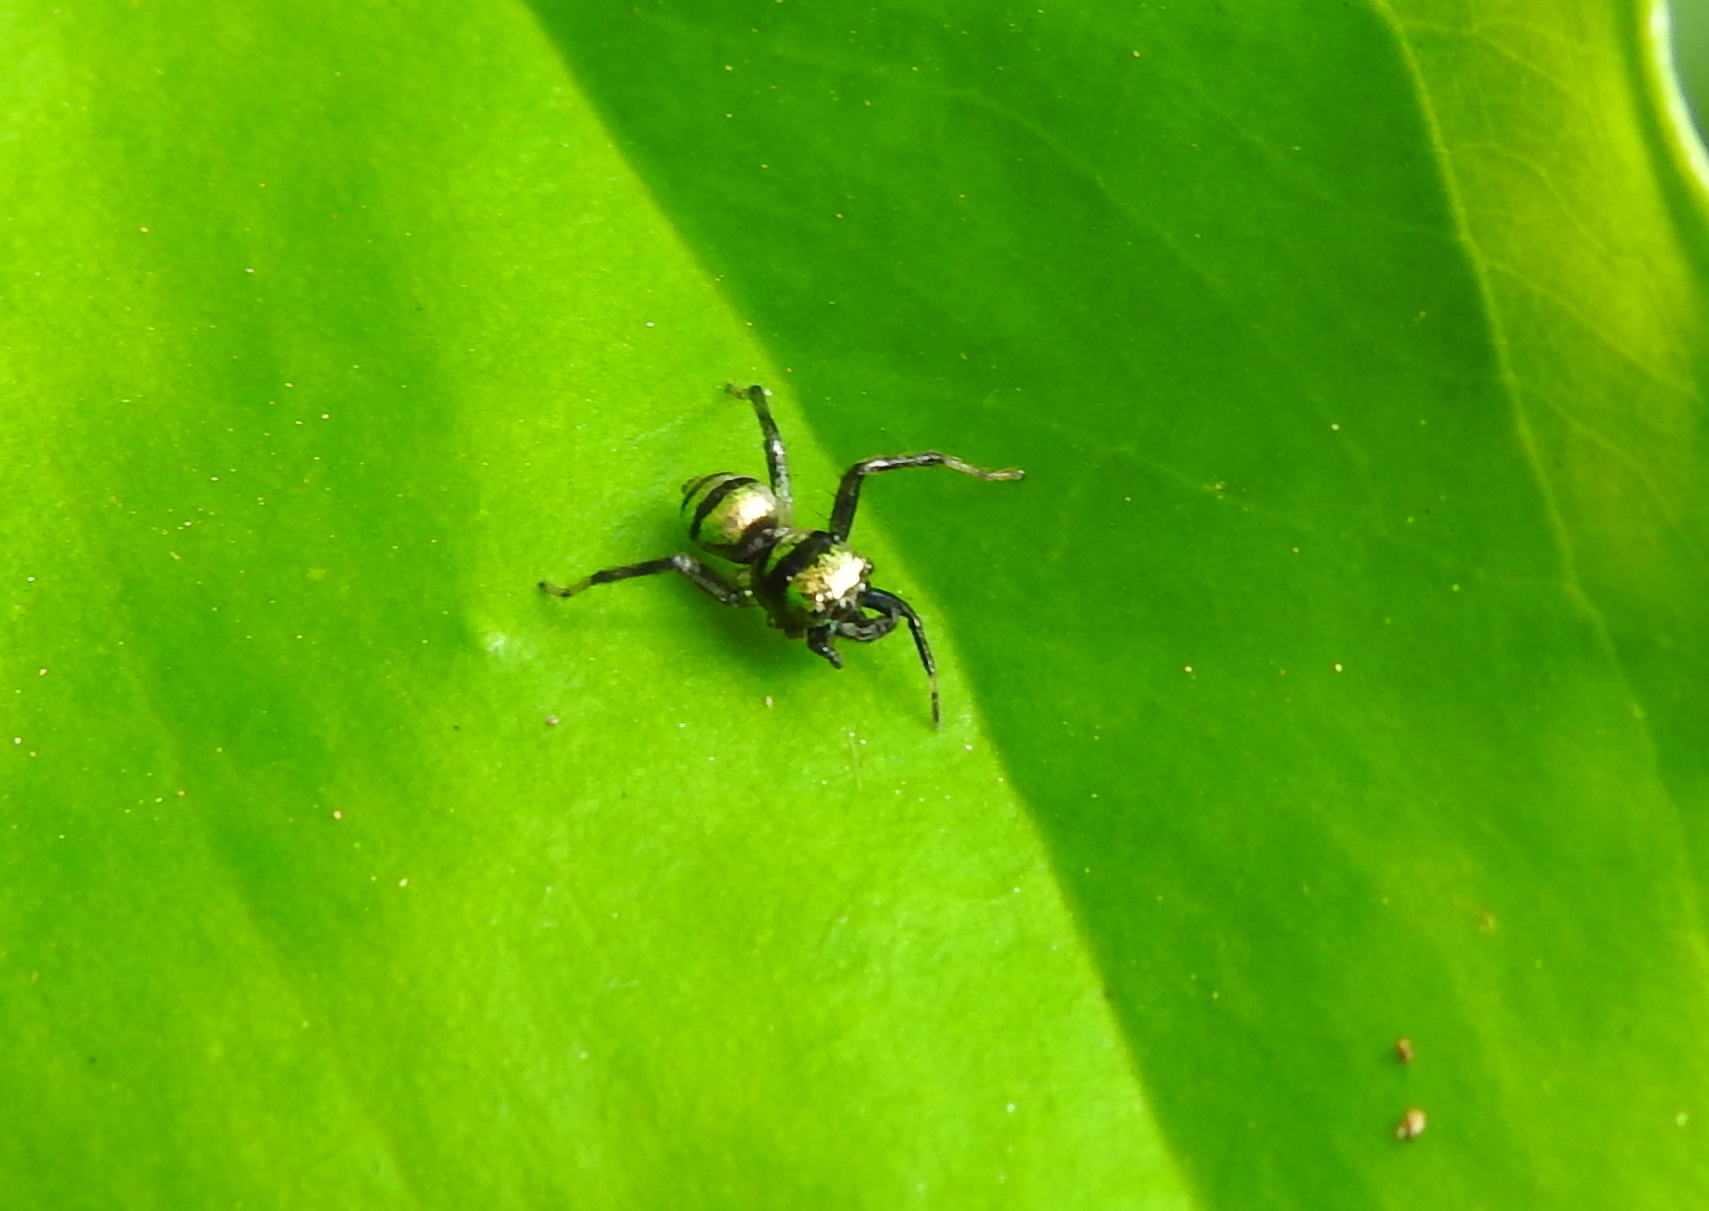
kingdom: Animalia
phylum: Arthropoda
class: Arachnida
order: Araneae
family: Salticidae
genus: Phintella
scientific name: Phintella vittata
